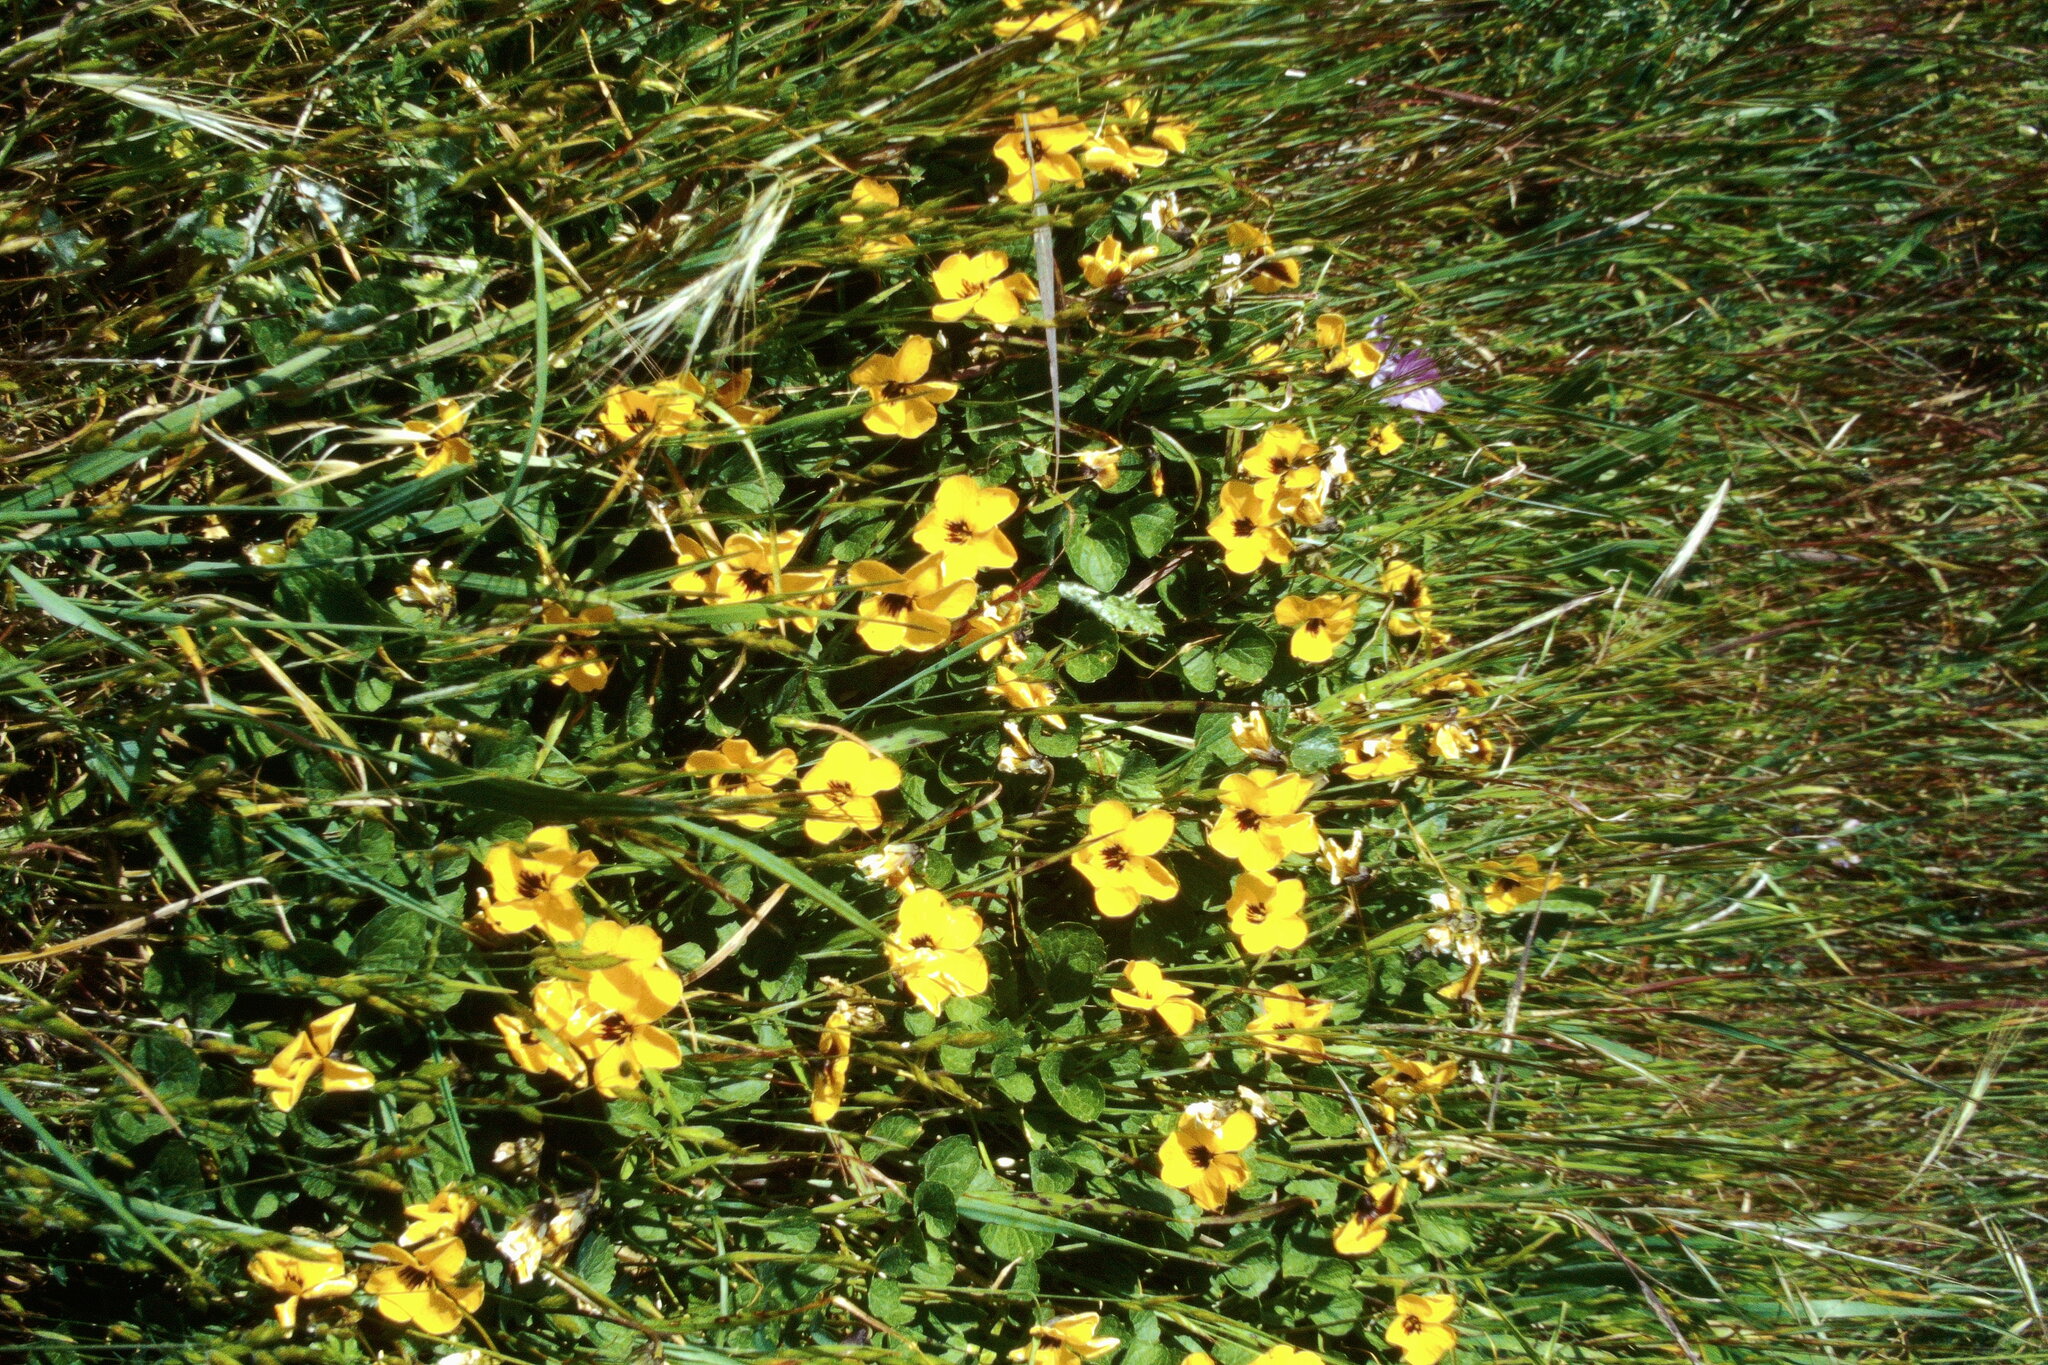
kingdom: Plantae
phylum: Tracheophyta
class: Magnoliopsida
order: Malpighiales
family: Violaceae
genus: Viola
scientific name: Viola pedunculata
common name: California golden violet
